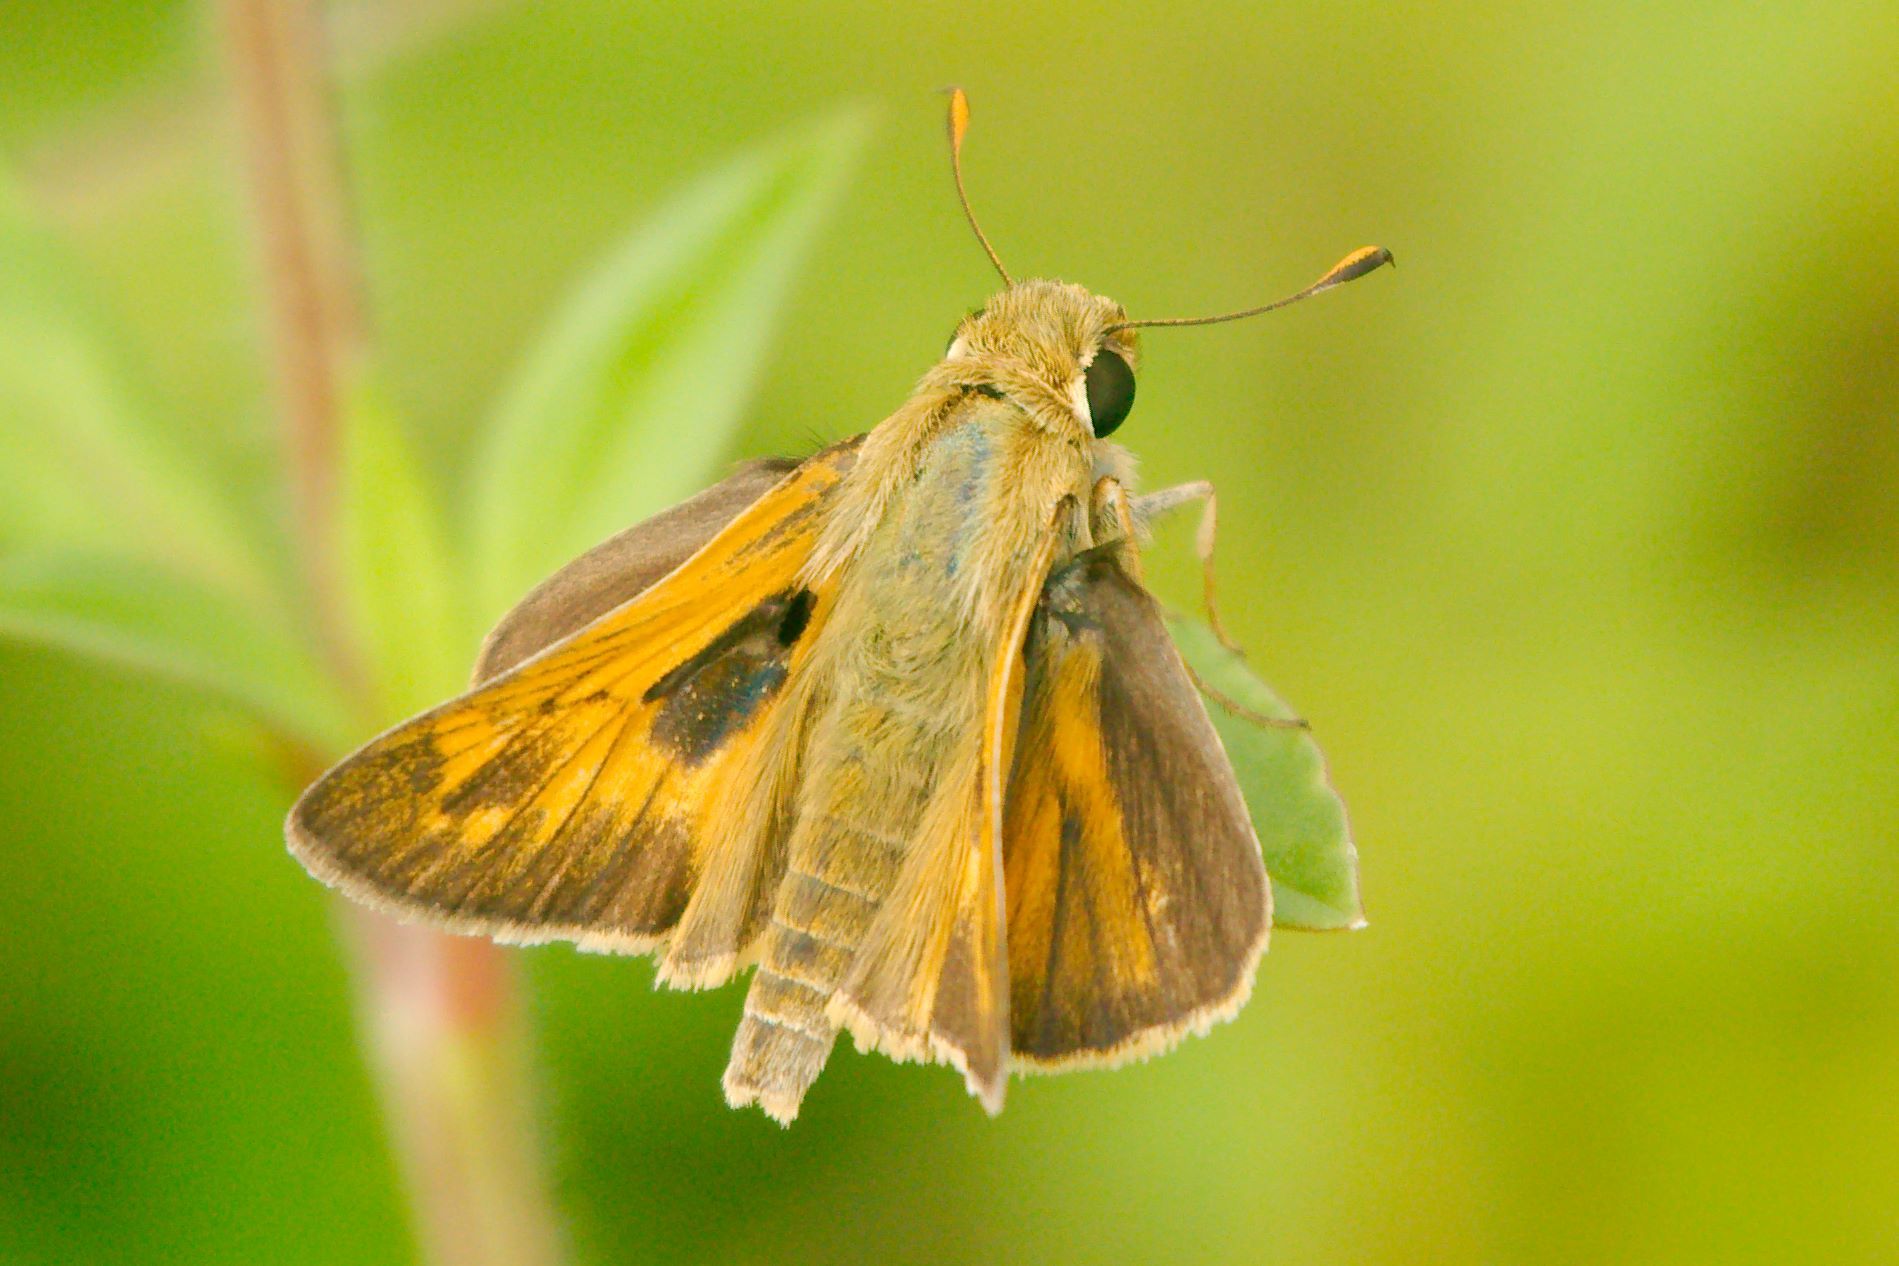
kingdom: Animalia
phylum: Arthropoda
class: Insecta
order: Lepidoptera
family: Hesperiidae
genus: Atalopedes
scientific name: Atalopedes
